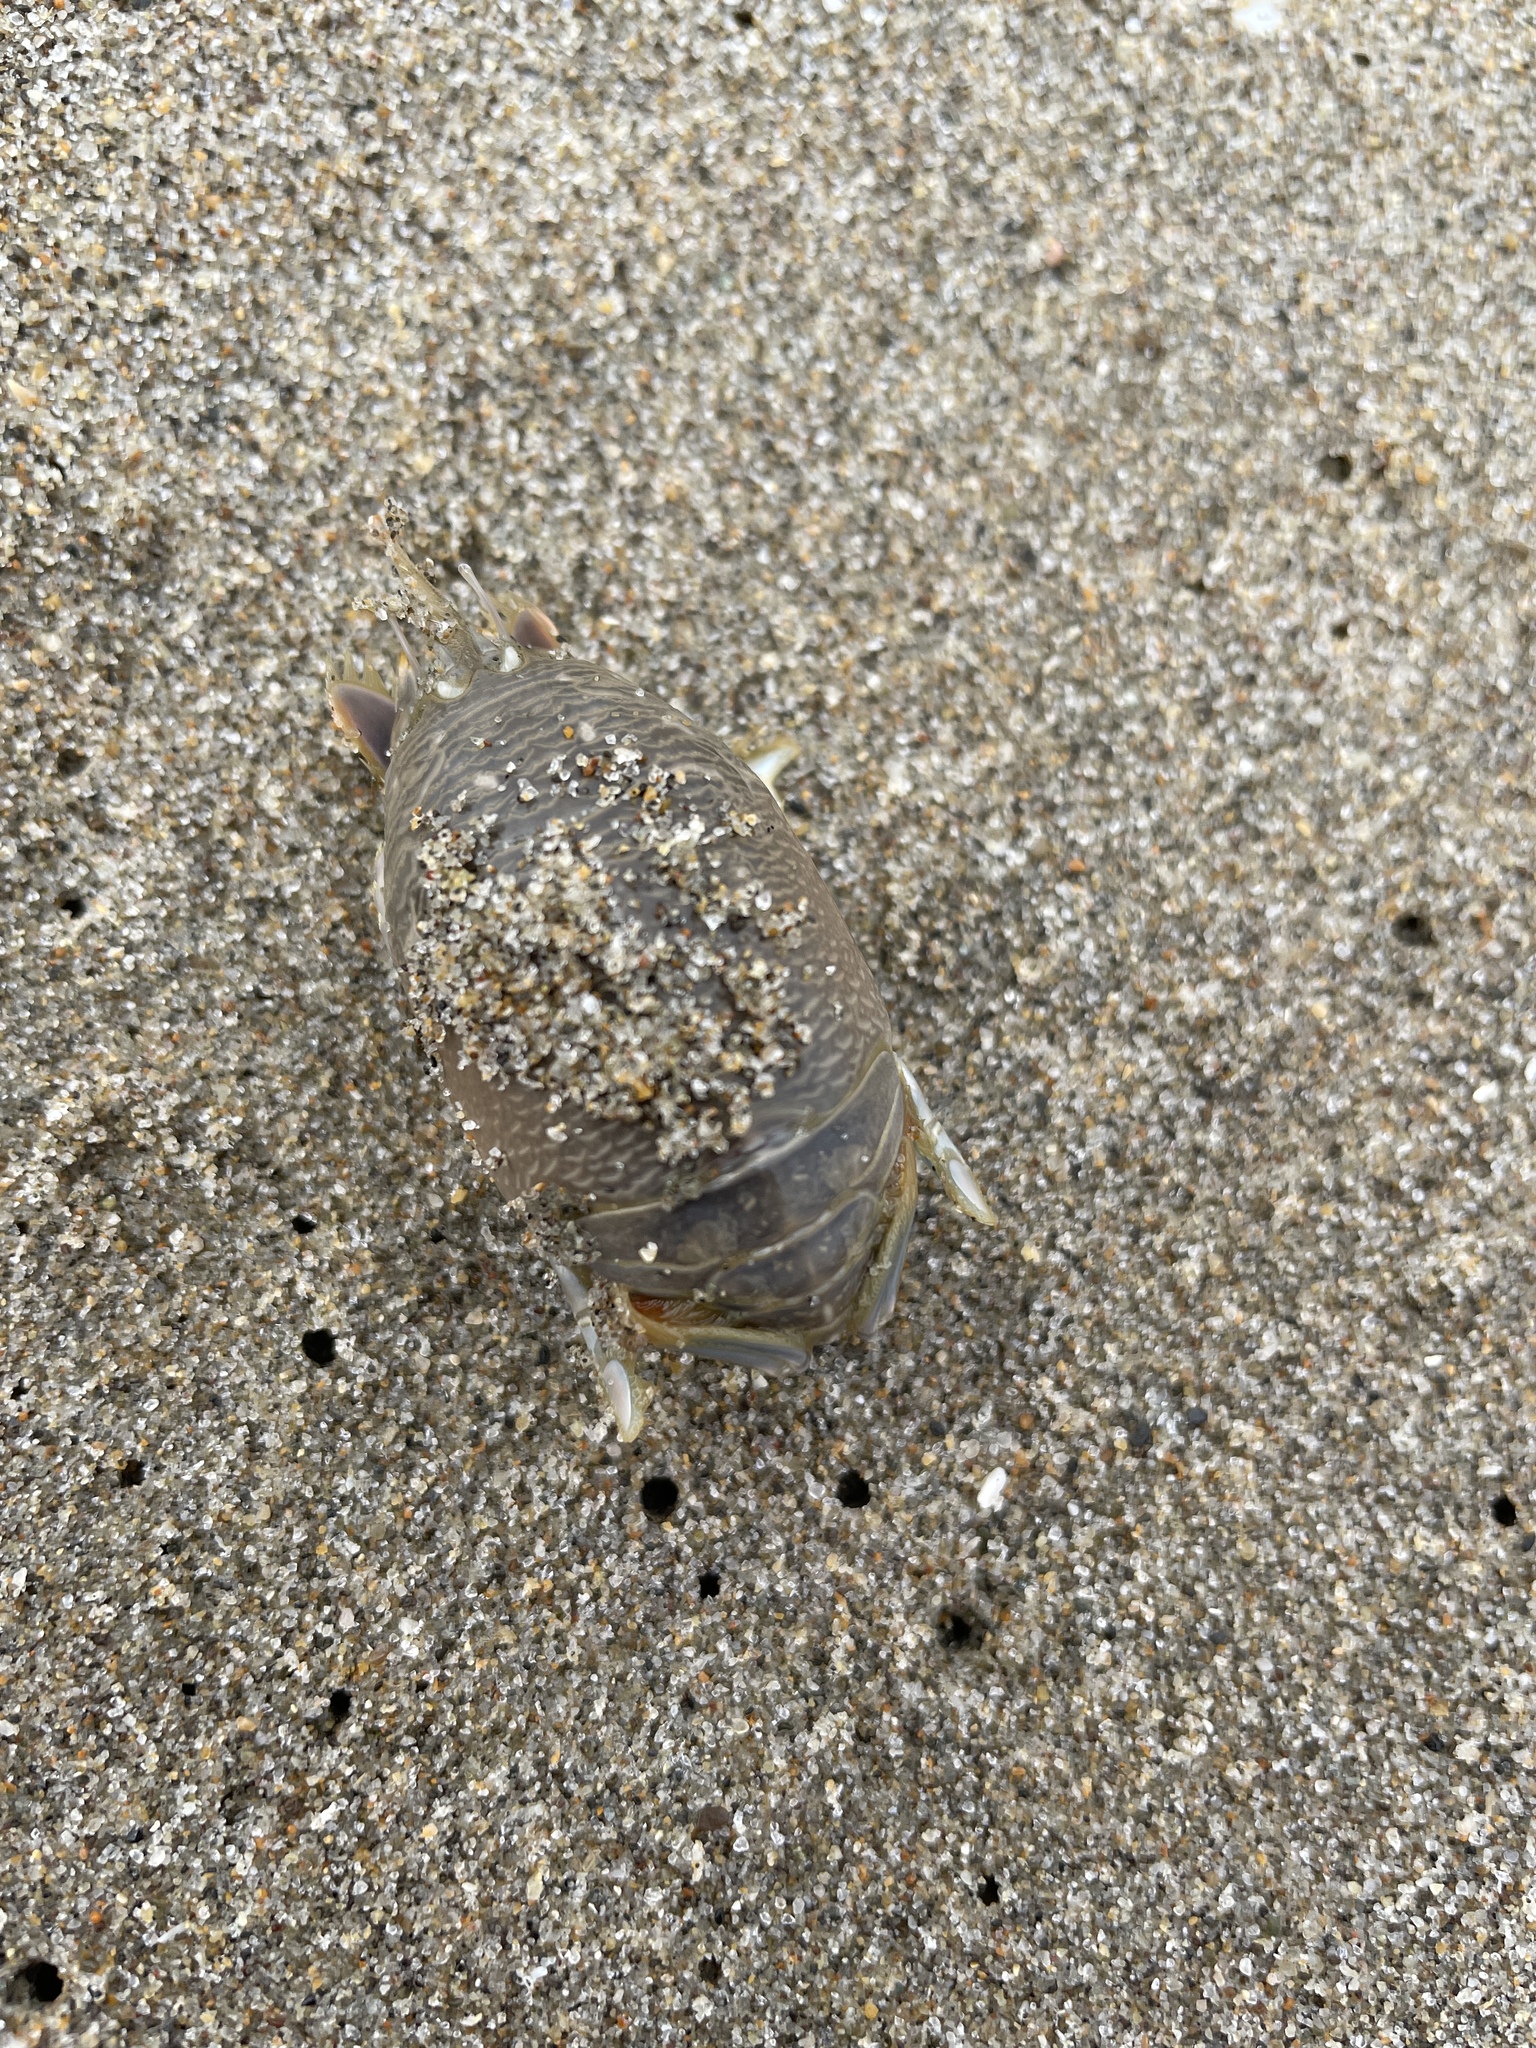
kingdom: Animalia
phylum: Arthropoda
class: Malacostraca
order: Decapoda
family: Hippidae
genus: Emerita
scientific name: Emerita analoga
